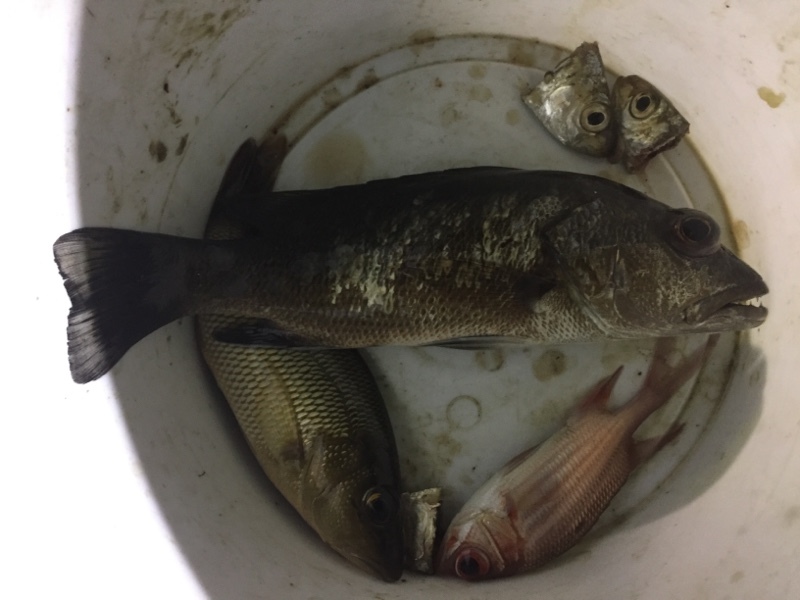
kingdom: Animalia
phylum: Chordata
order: Perciformes
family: Lutjanidae
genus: Lutjanus
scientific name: Lutjanus
